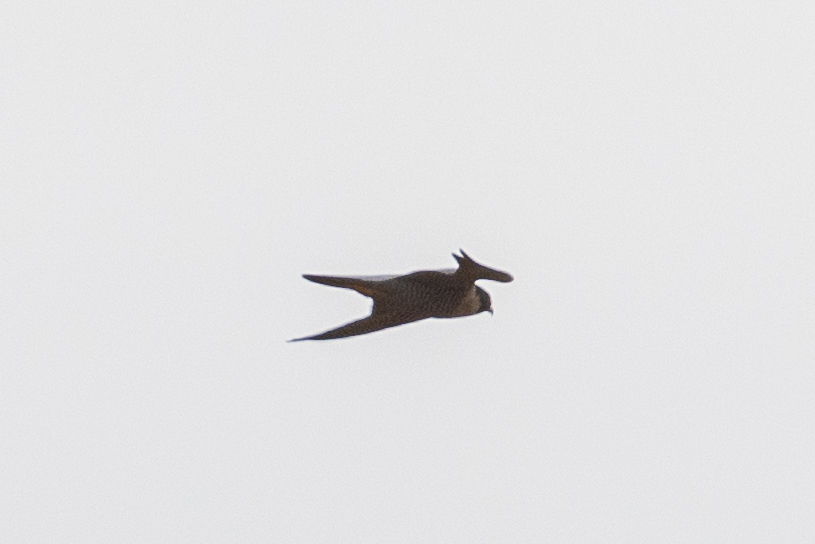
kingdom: Animalia
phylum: Chordata
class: Aves
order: Falconiformes
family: Falconidae
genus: Falco
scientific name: Falco peregrinus
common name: Peregrine falcon
